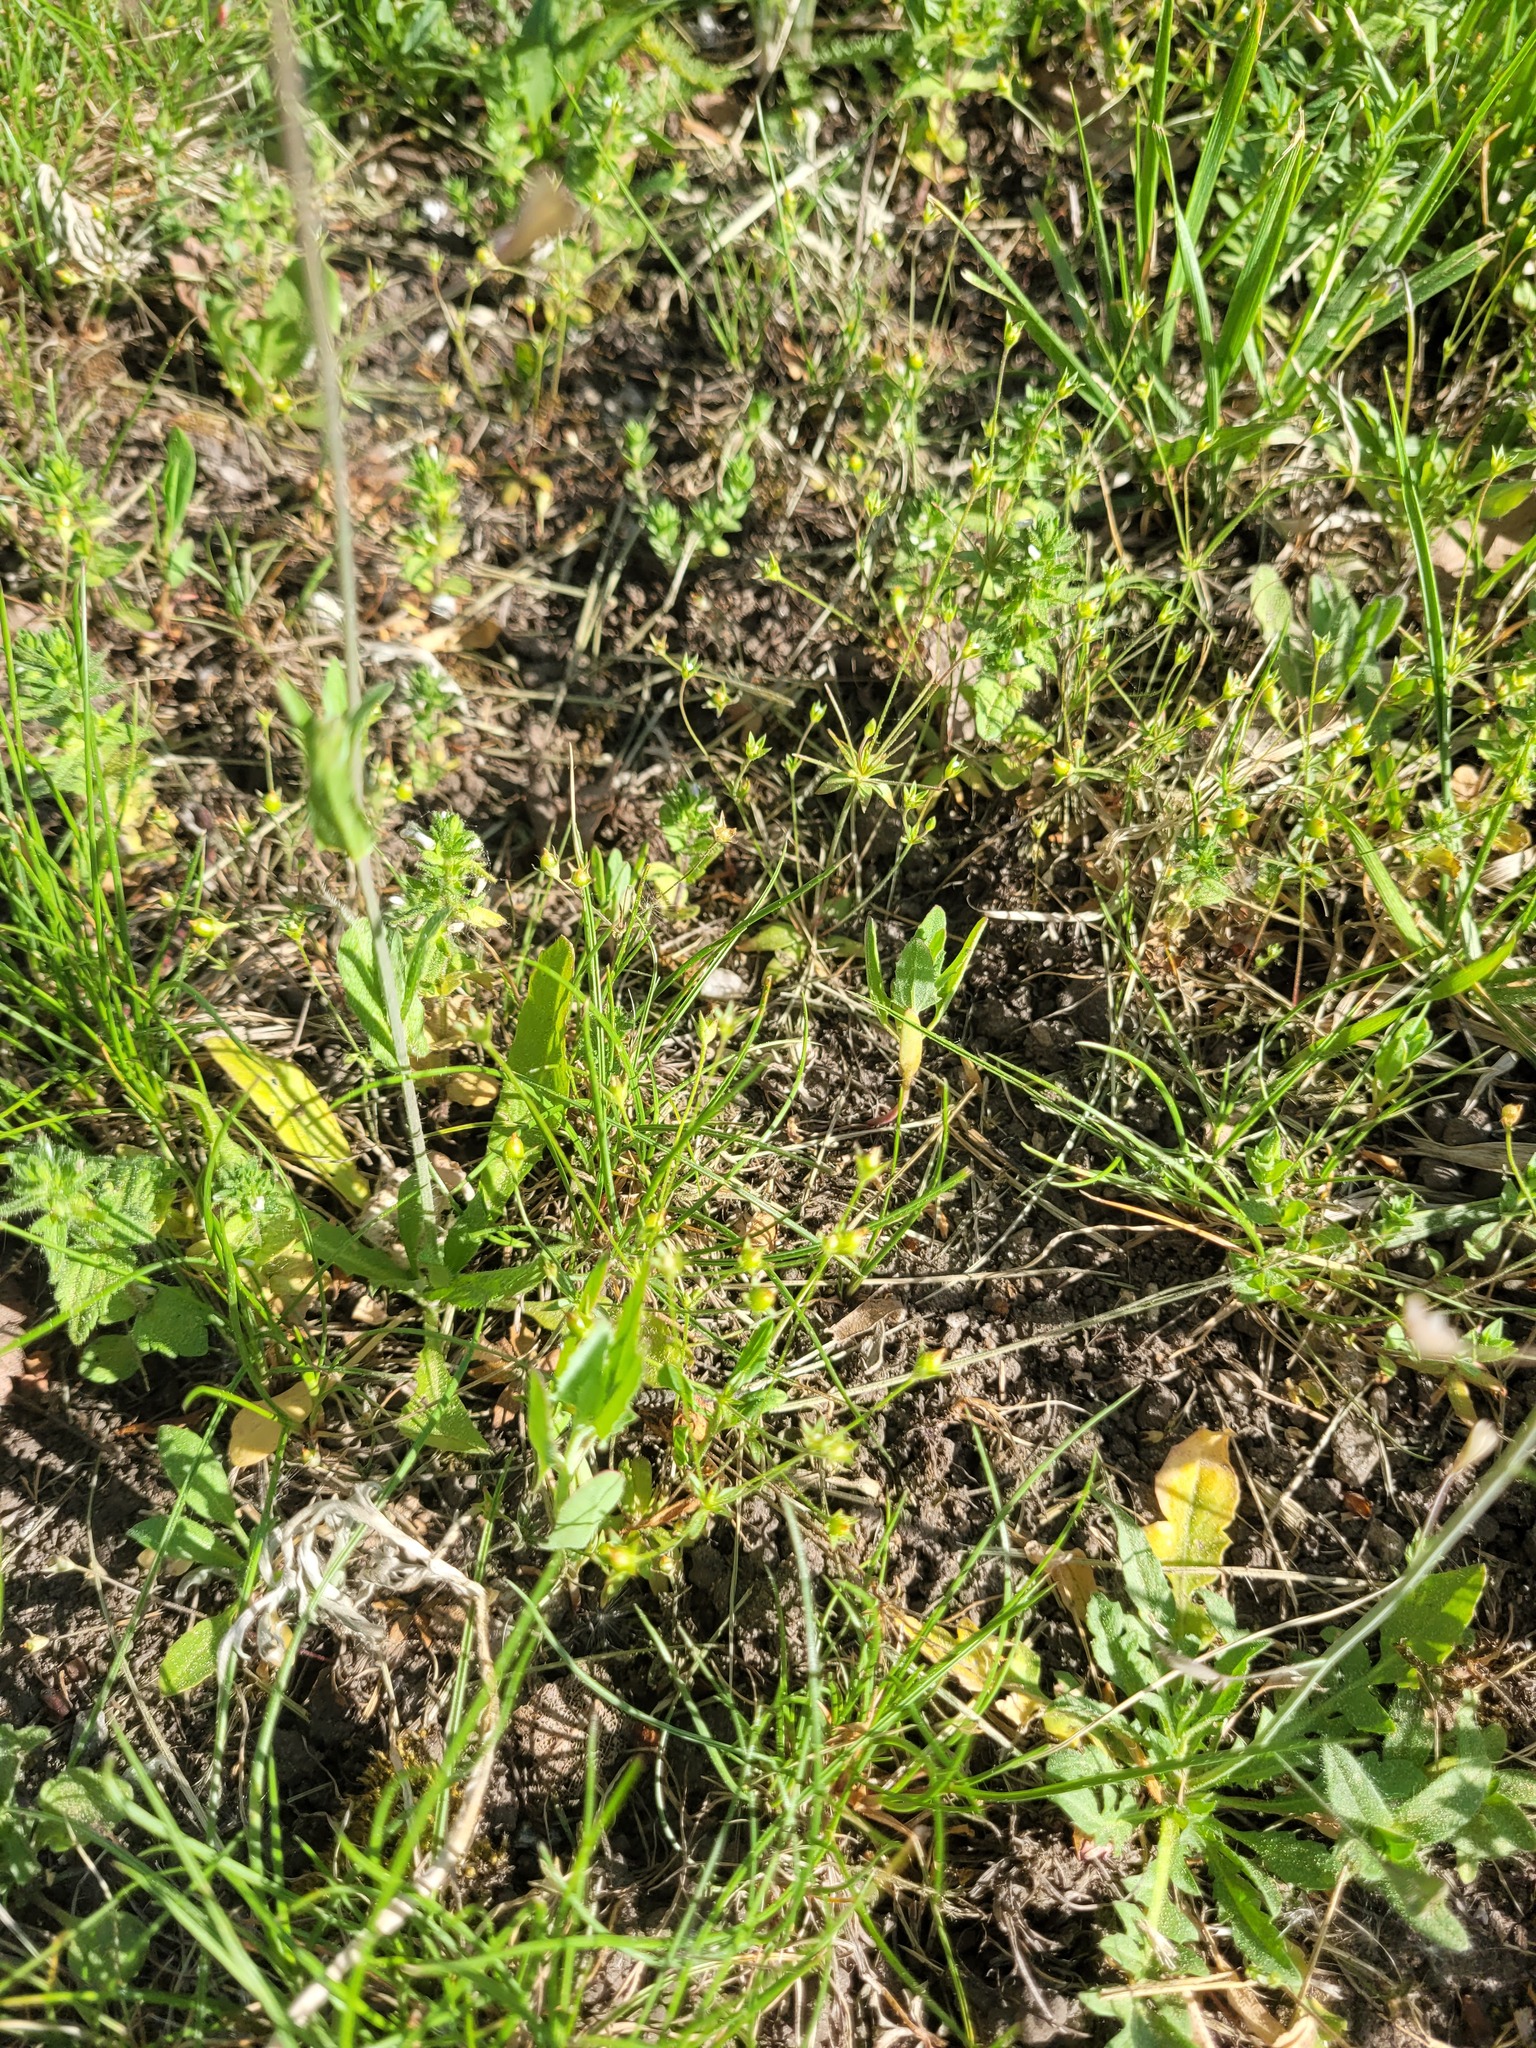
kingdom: Plantae
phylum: Tracheophyta
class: Magnoliopsida
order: Ericales
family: Primulaceae
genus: Androsace
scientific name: Androsace elongata
